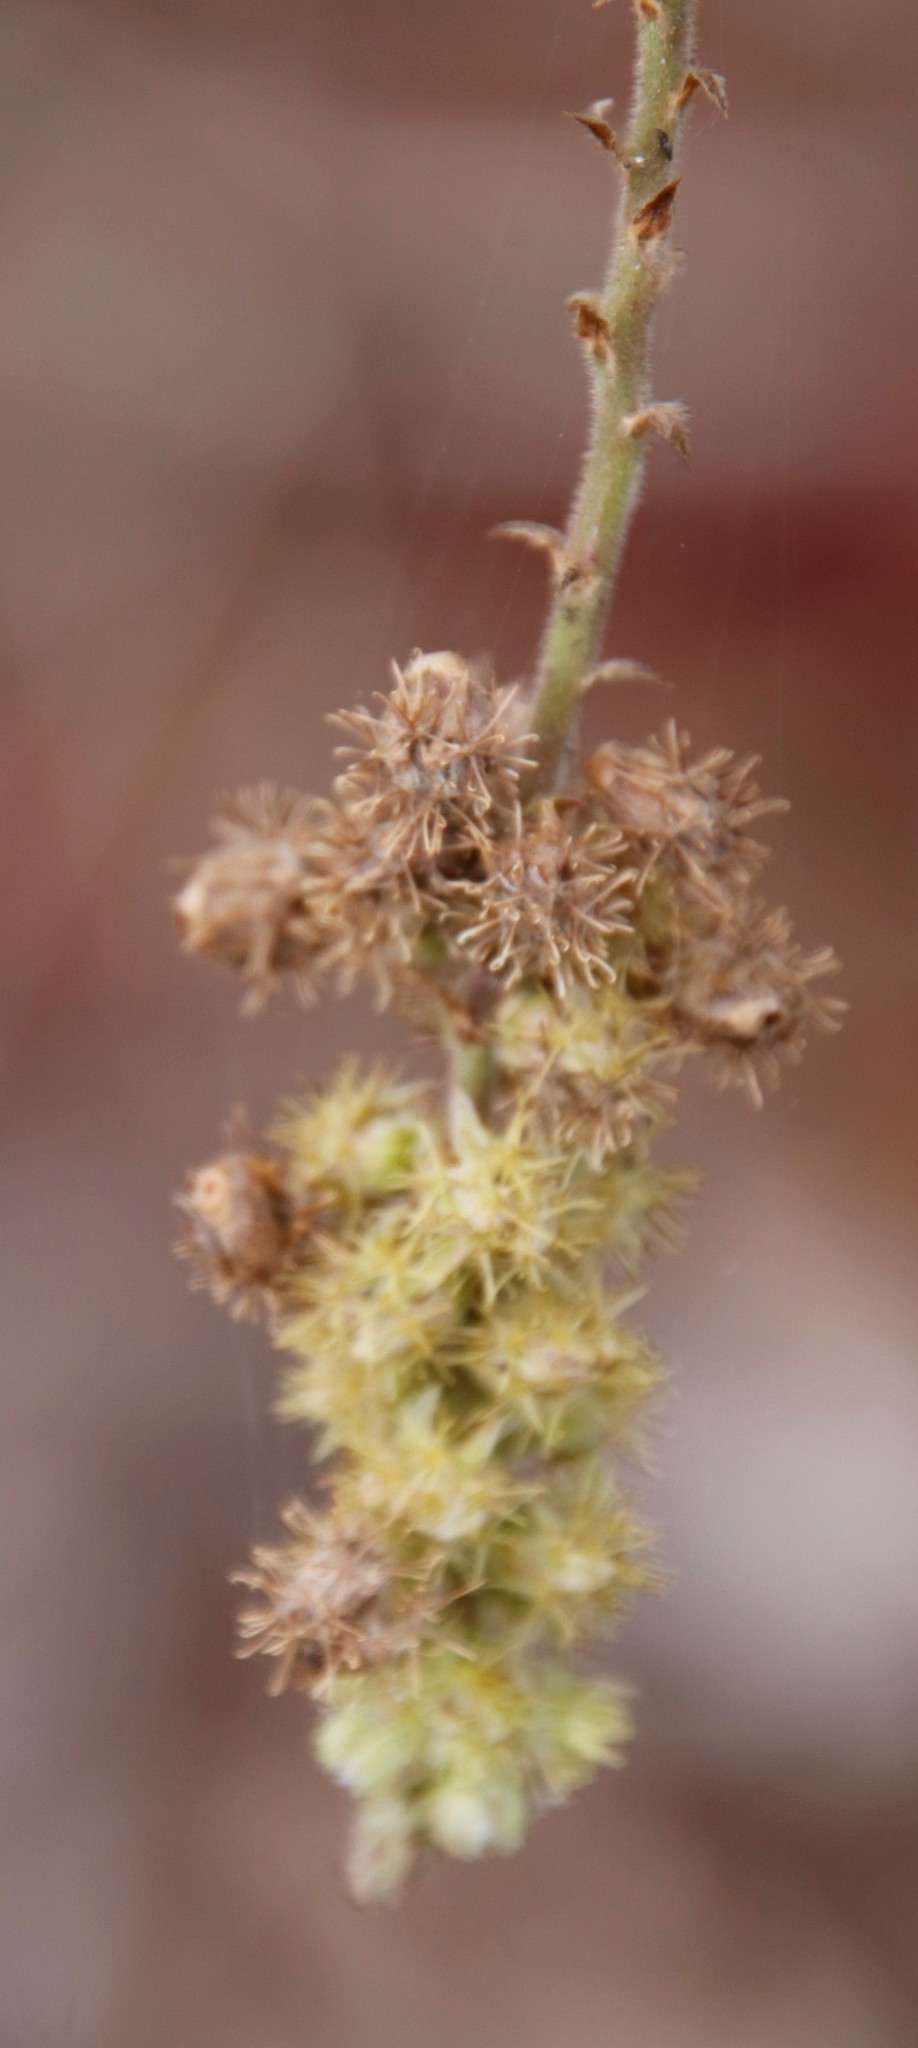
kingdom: Plantae
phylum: Tracheophyta
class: Magnoliopsida
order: Caryophyllales
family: Amaranthaceae
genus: Pupalia
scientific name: Pupalia lappacea
